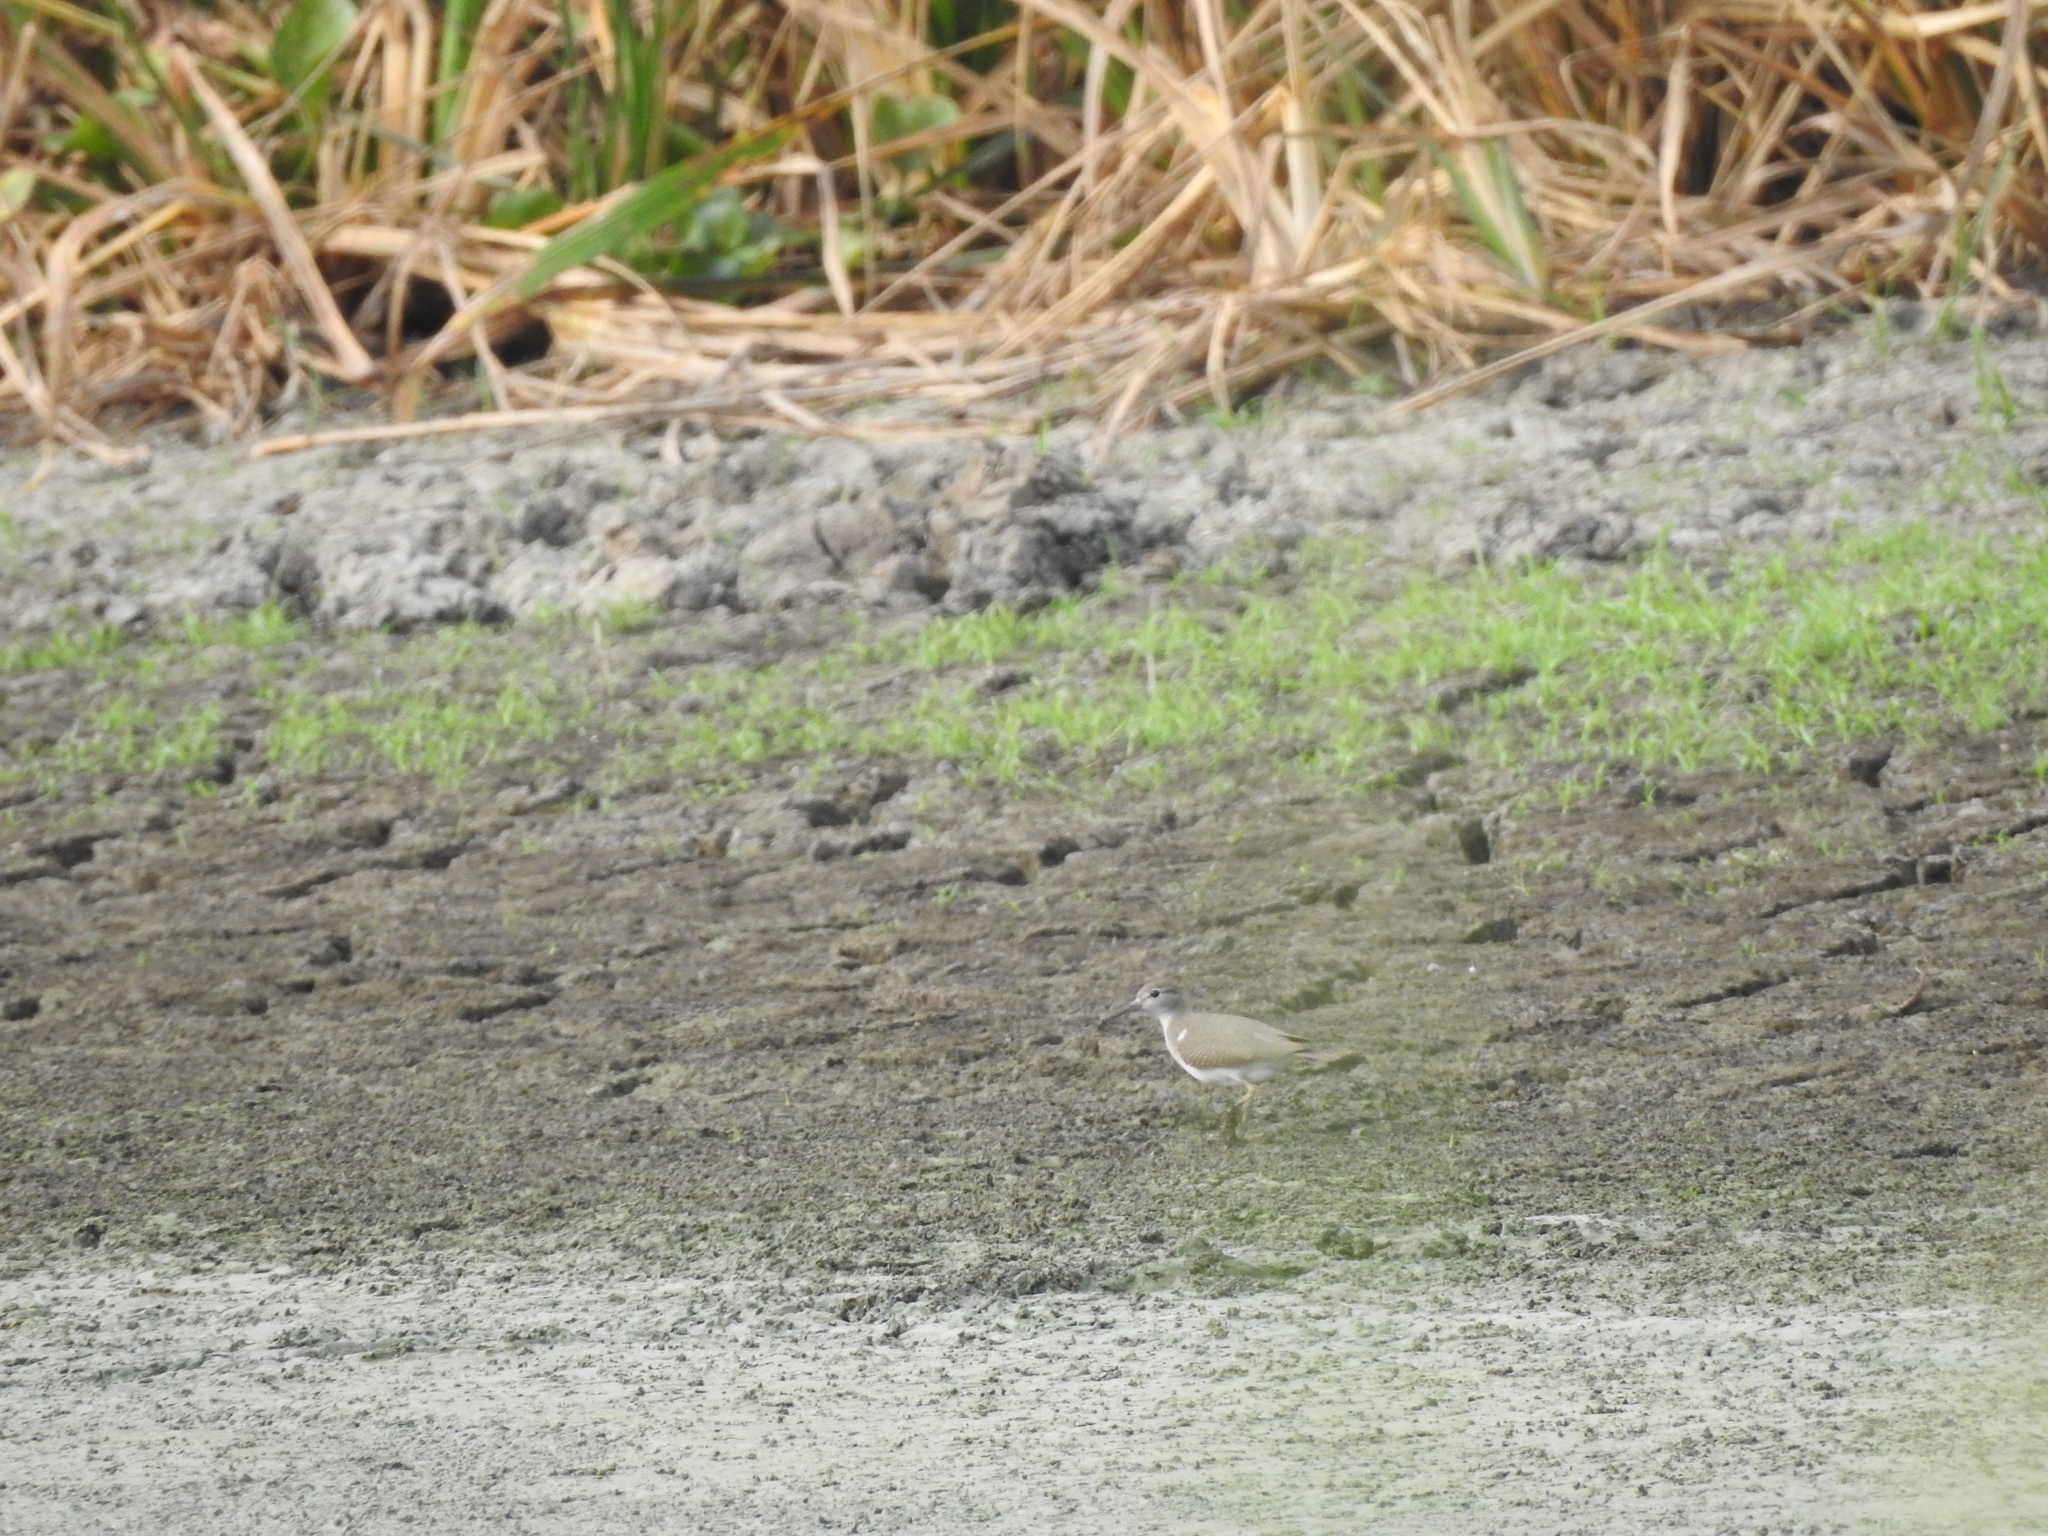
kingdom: Animalia
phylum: Chordata
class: Aves
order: Charadriiformes
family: Scolopacidae
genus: Actitis
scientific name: Actitis macularius
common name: Spotted sandpiper
